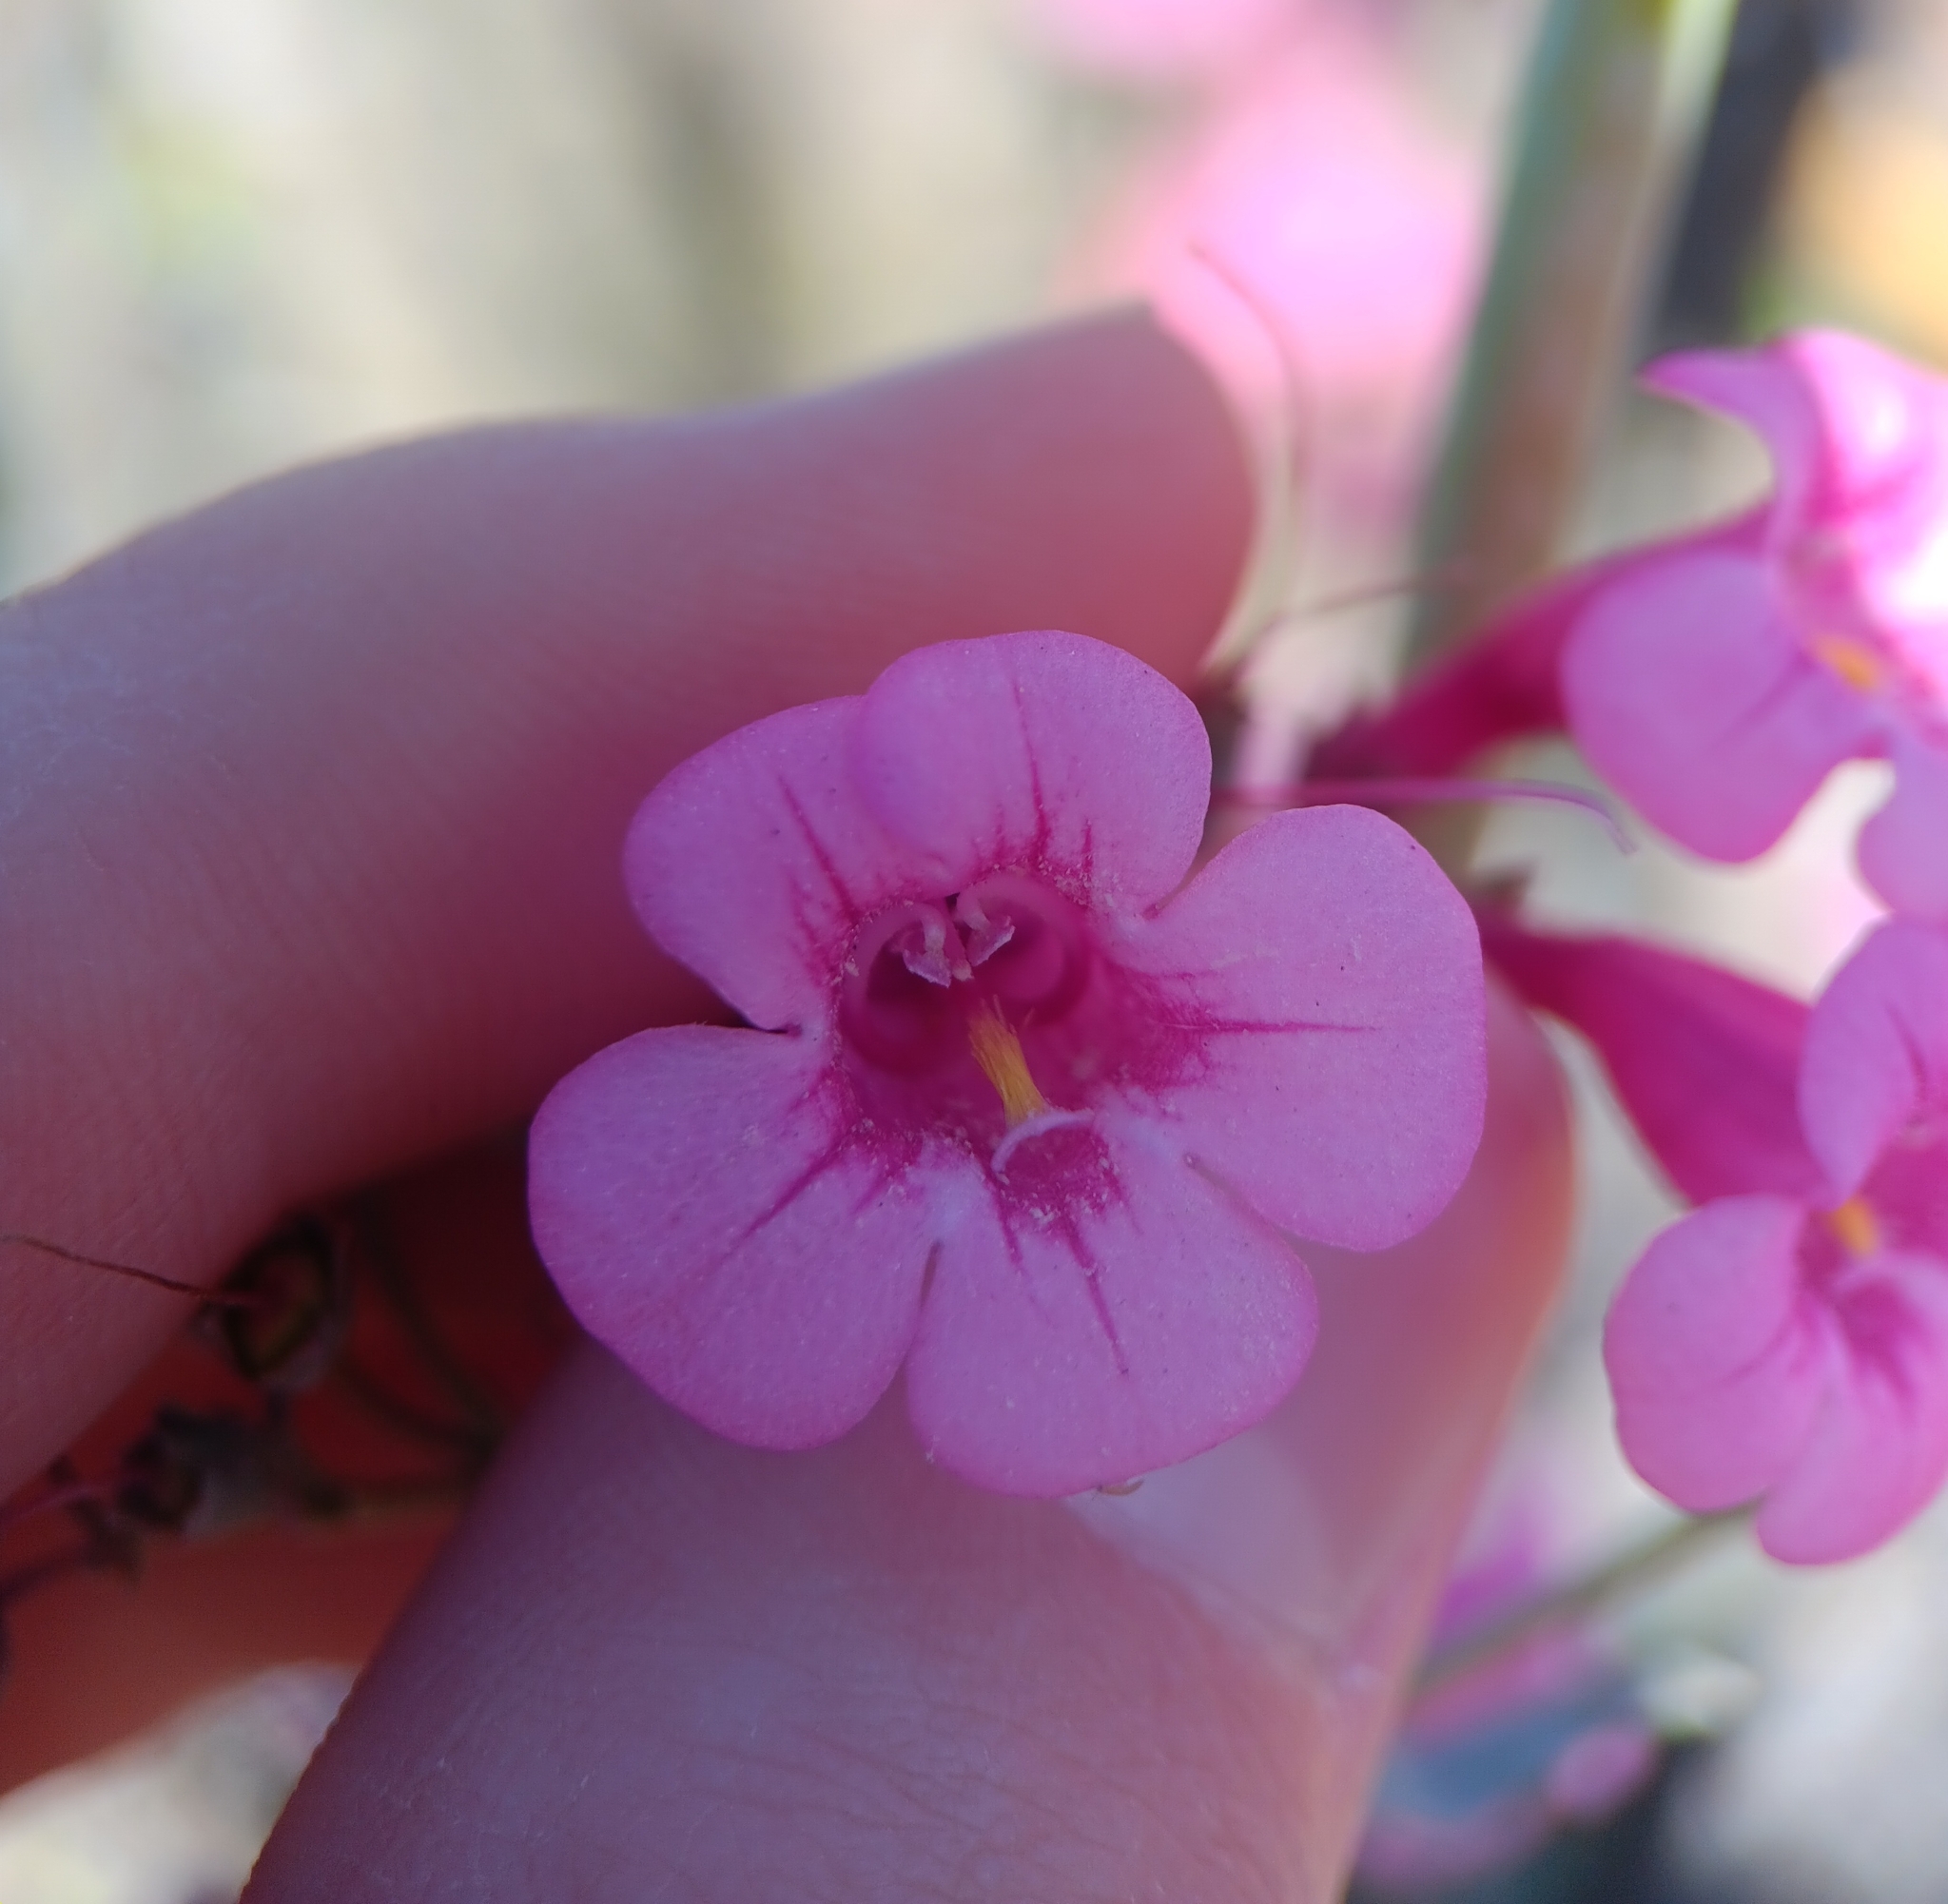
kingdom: Plantae
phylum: Tracheophyta
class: Magnoliopsida
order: Lamiales
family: Plantaginaceae
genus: Penstemon
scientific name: Penstemon parryi
